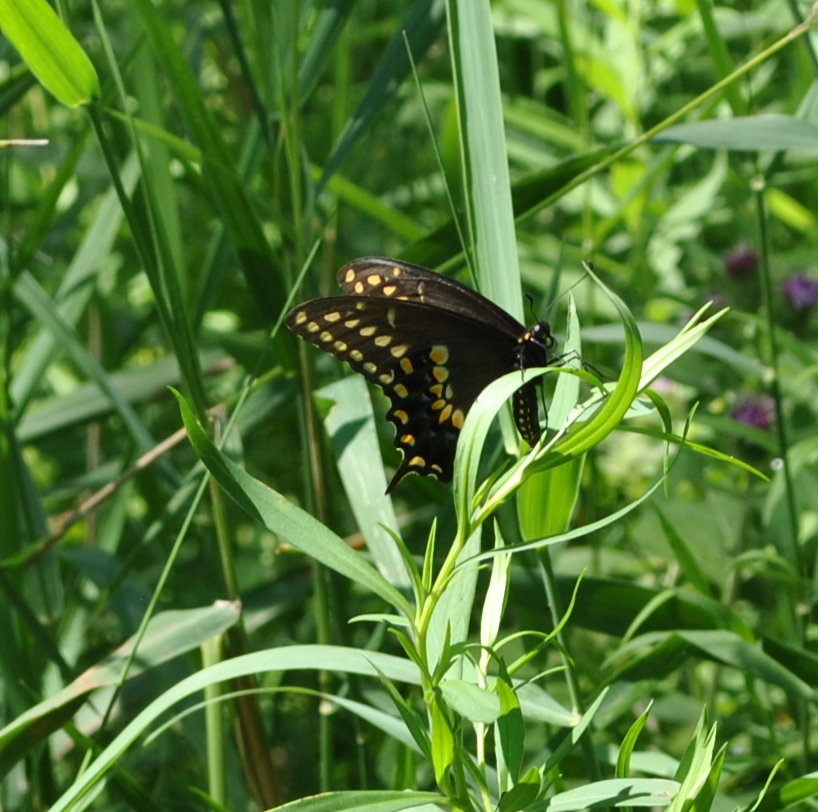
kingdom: Animalia
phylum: Arthropoda
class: Insecta
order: Lepidoptera
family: Papilionidae
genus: Papilio
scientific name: Papilio polyxenes
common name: Black swallowtail
